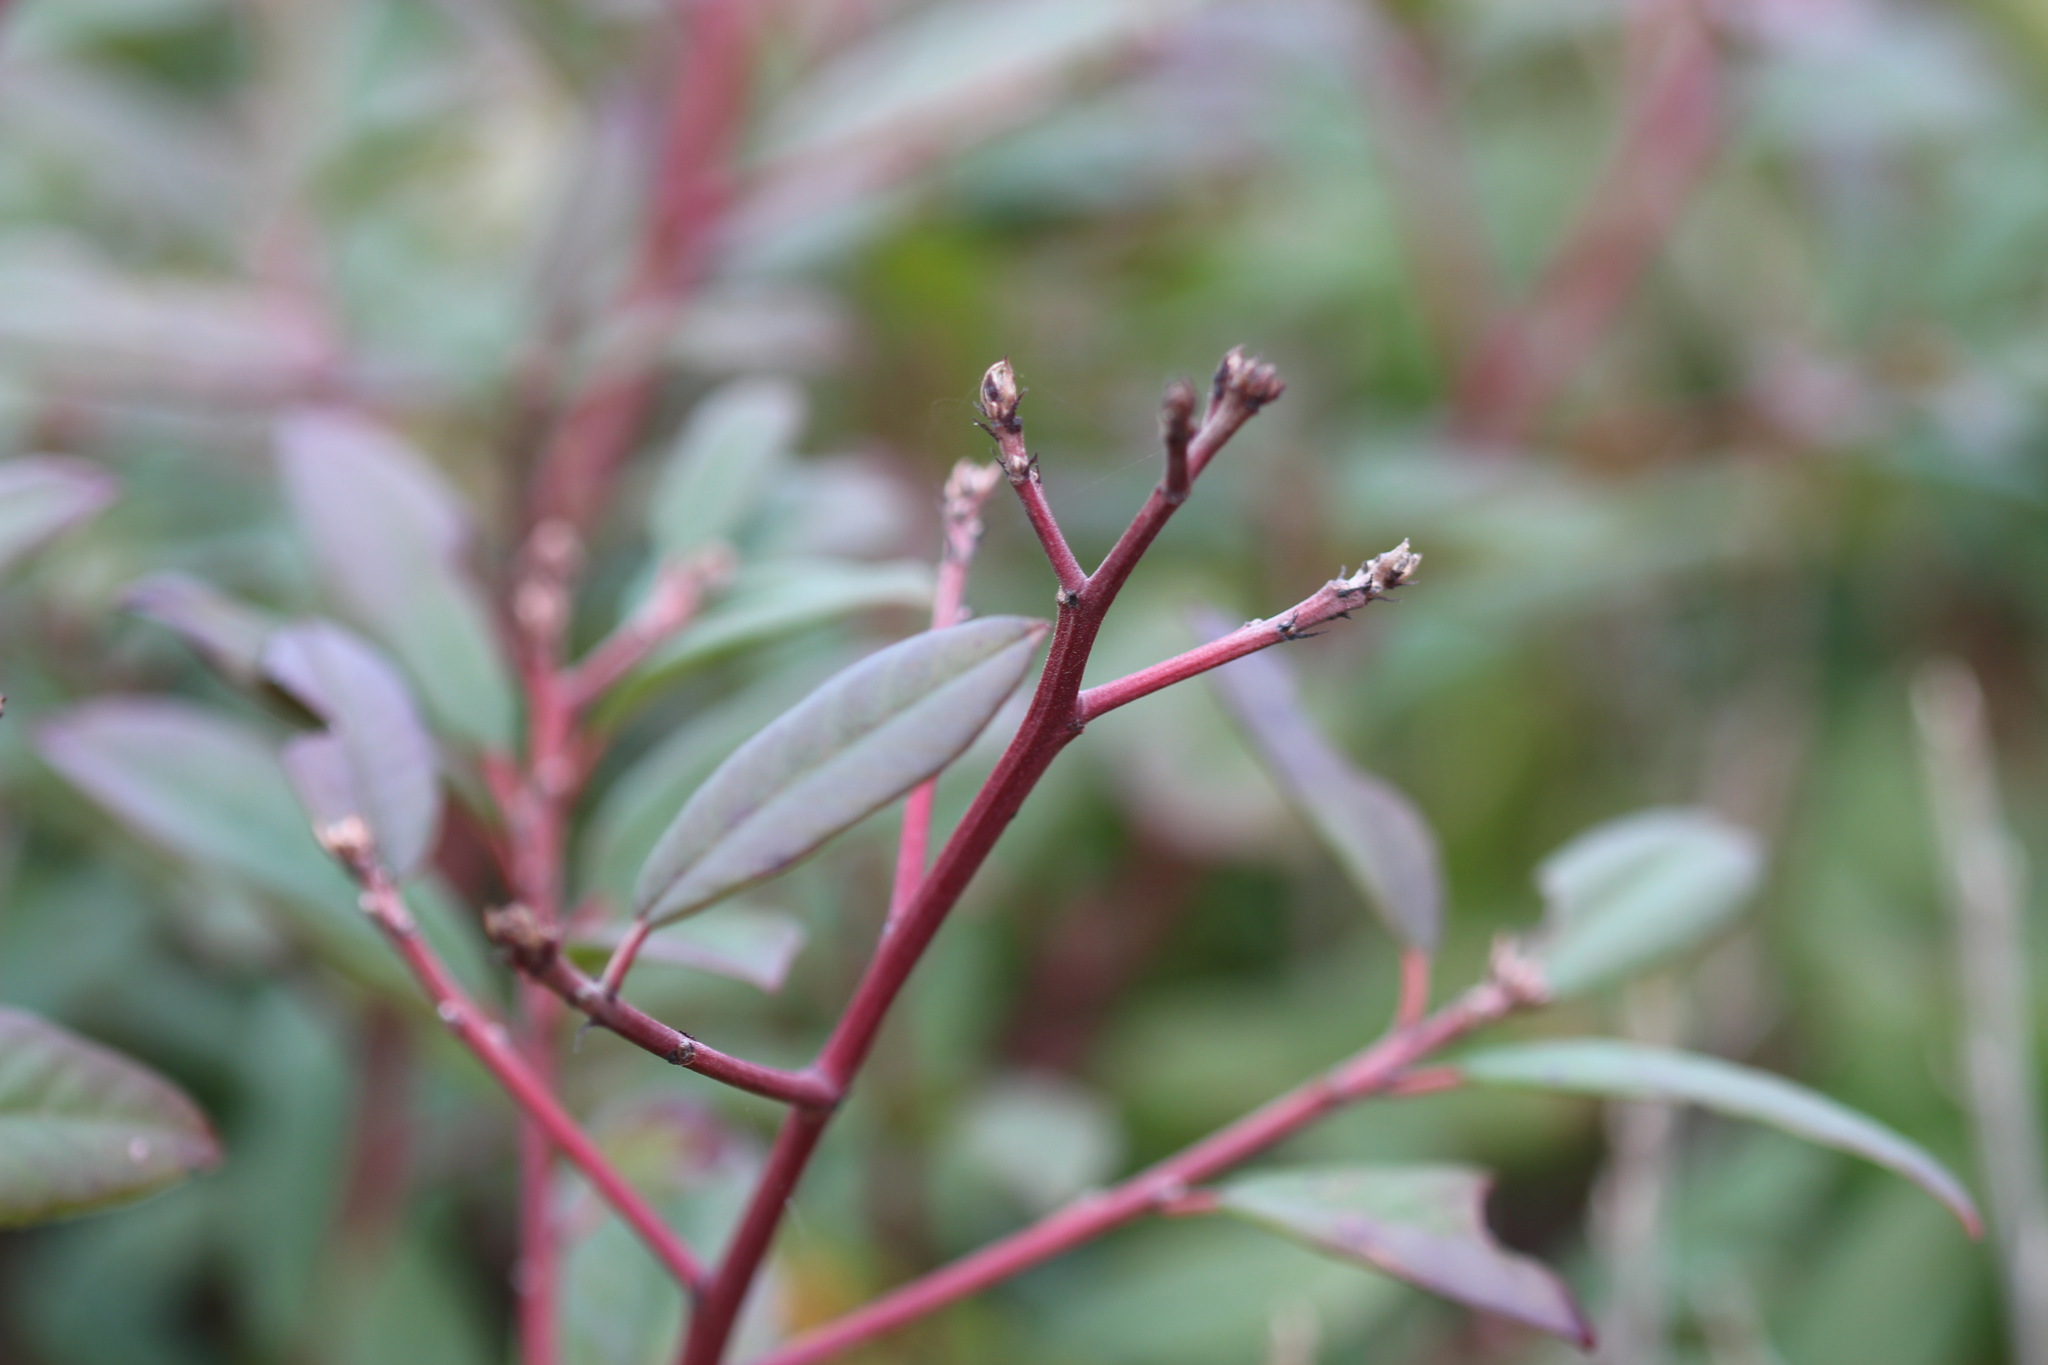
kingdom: Plantae
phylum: Tracheophyta
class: Magnoliopsida
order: Rosales
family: Rhamnaceae
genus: Frangula
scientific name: Frangula californica
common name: California buckthorn
